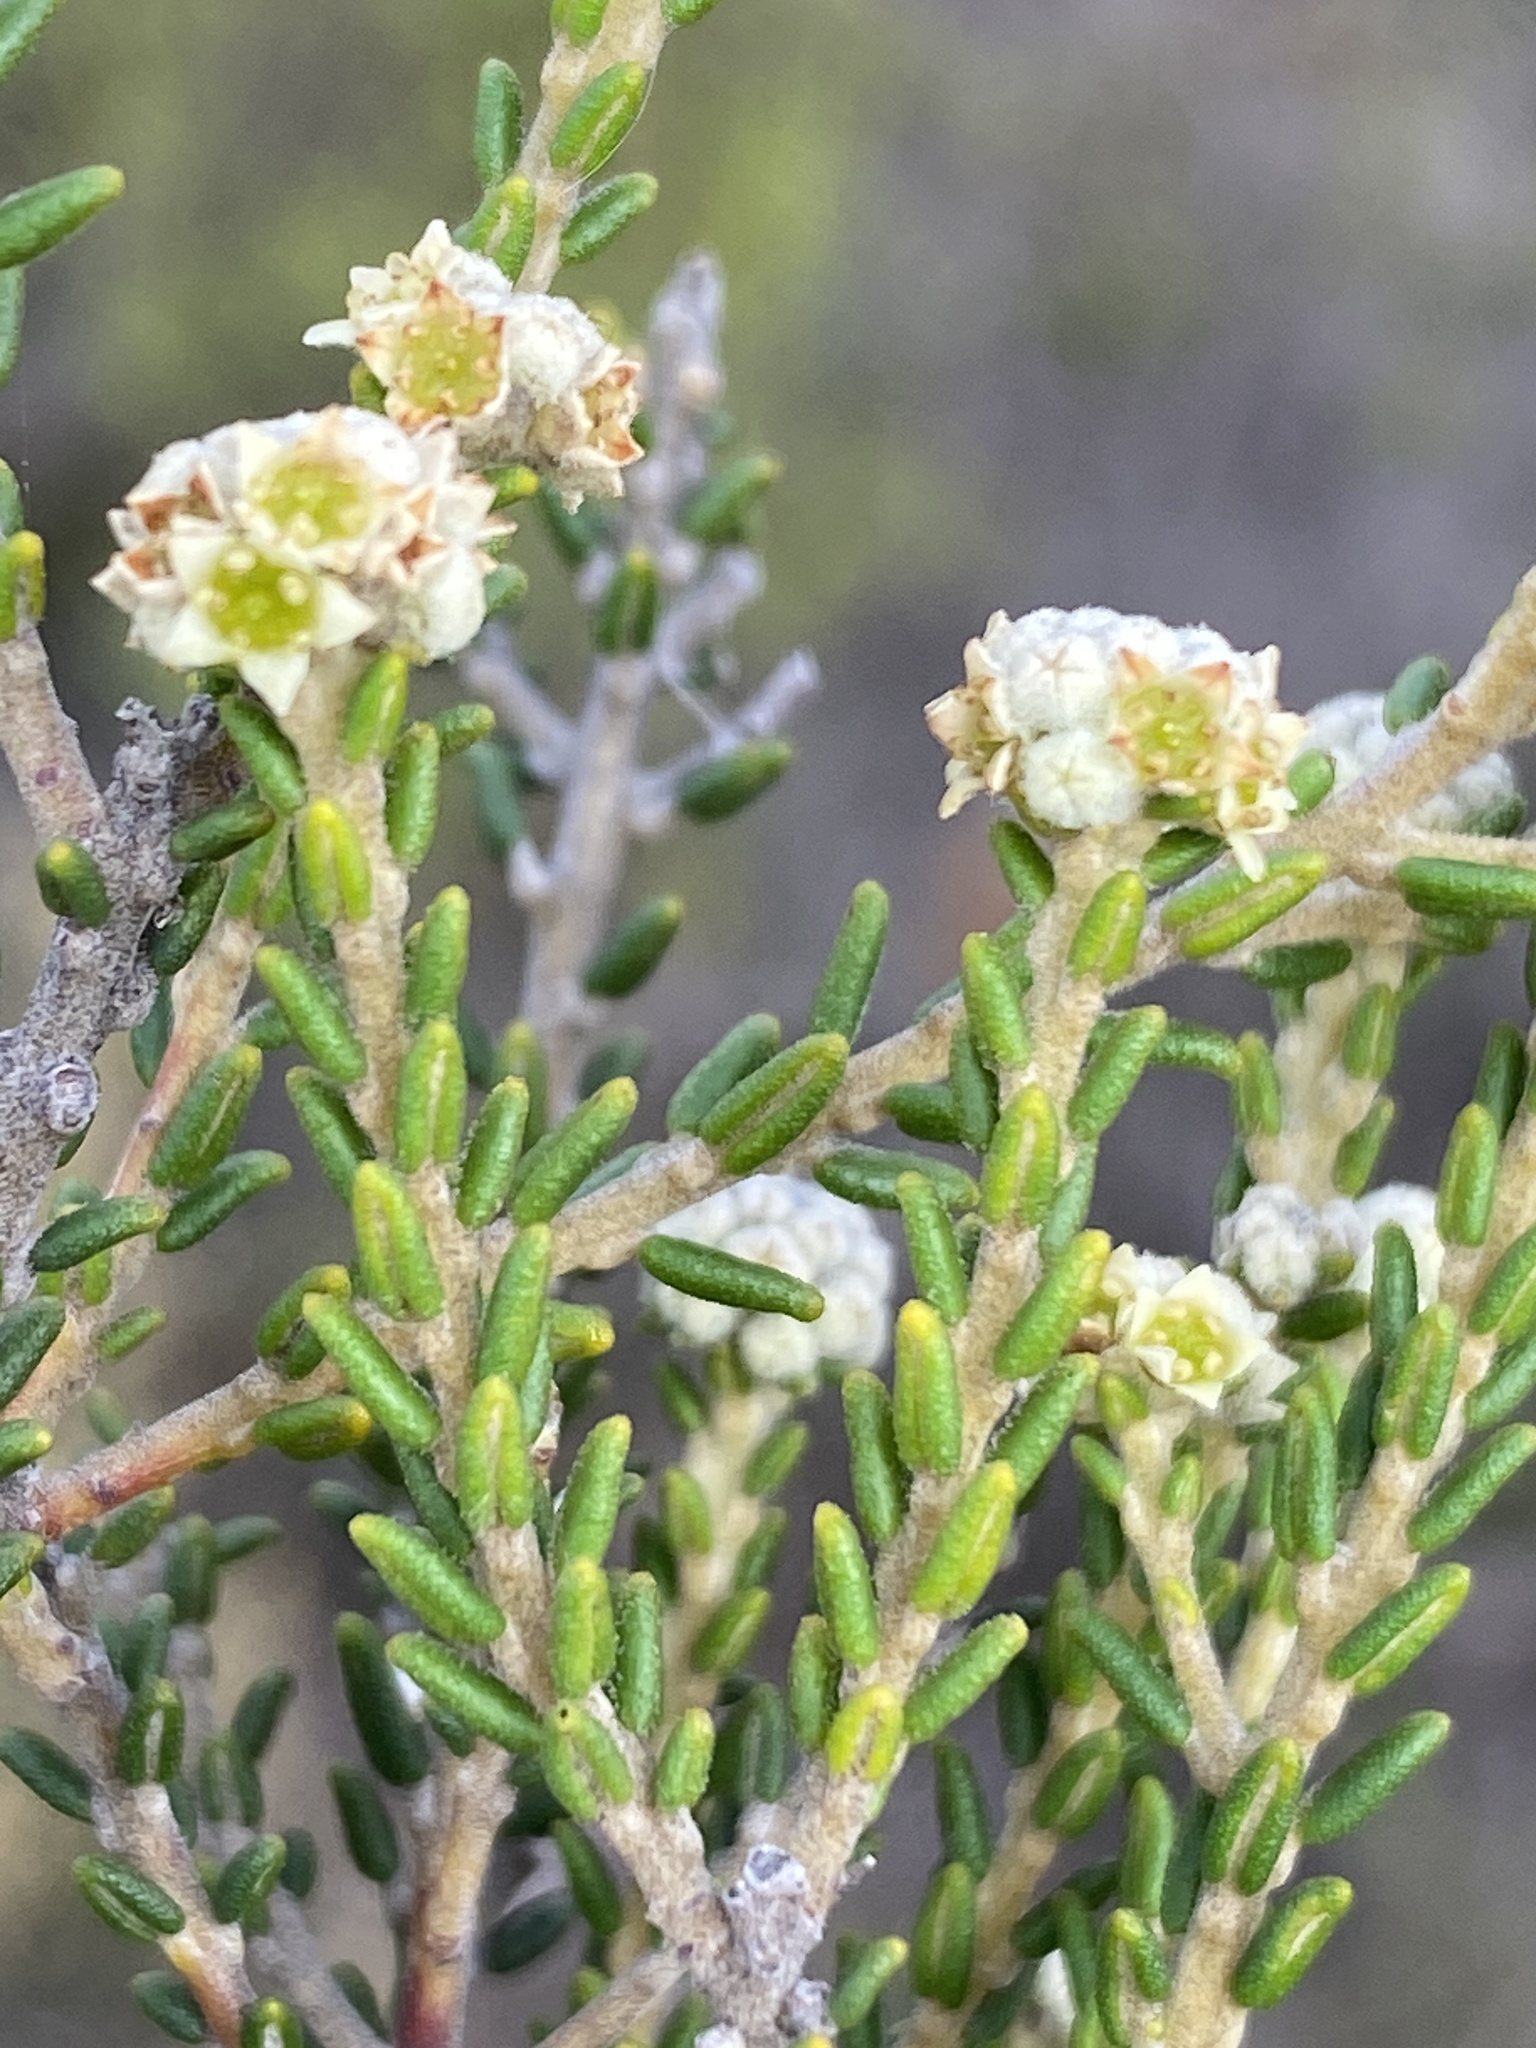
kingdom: Plantae
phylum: Tracheophyta
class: Magnoliopsida
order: Rosales
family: Rhamnaceae
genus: Phylica
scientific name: Phylica cephalantha
